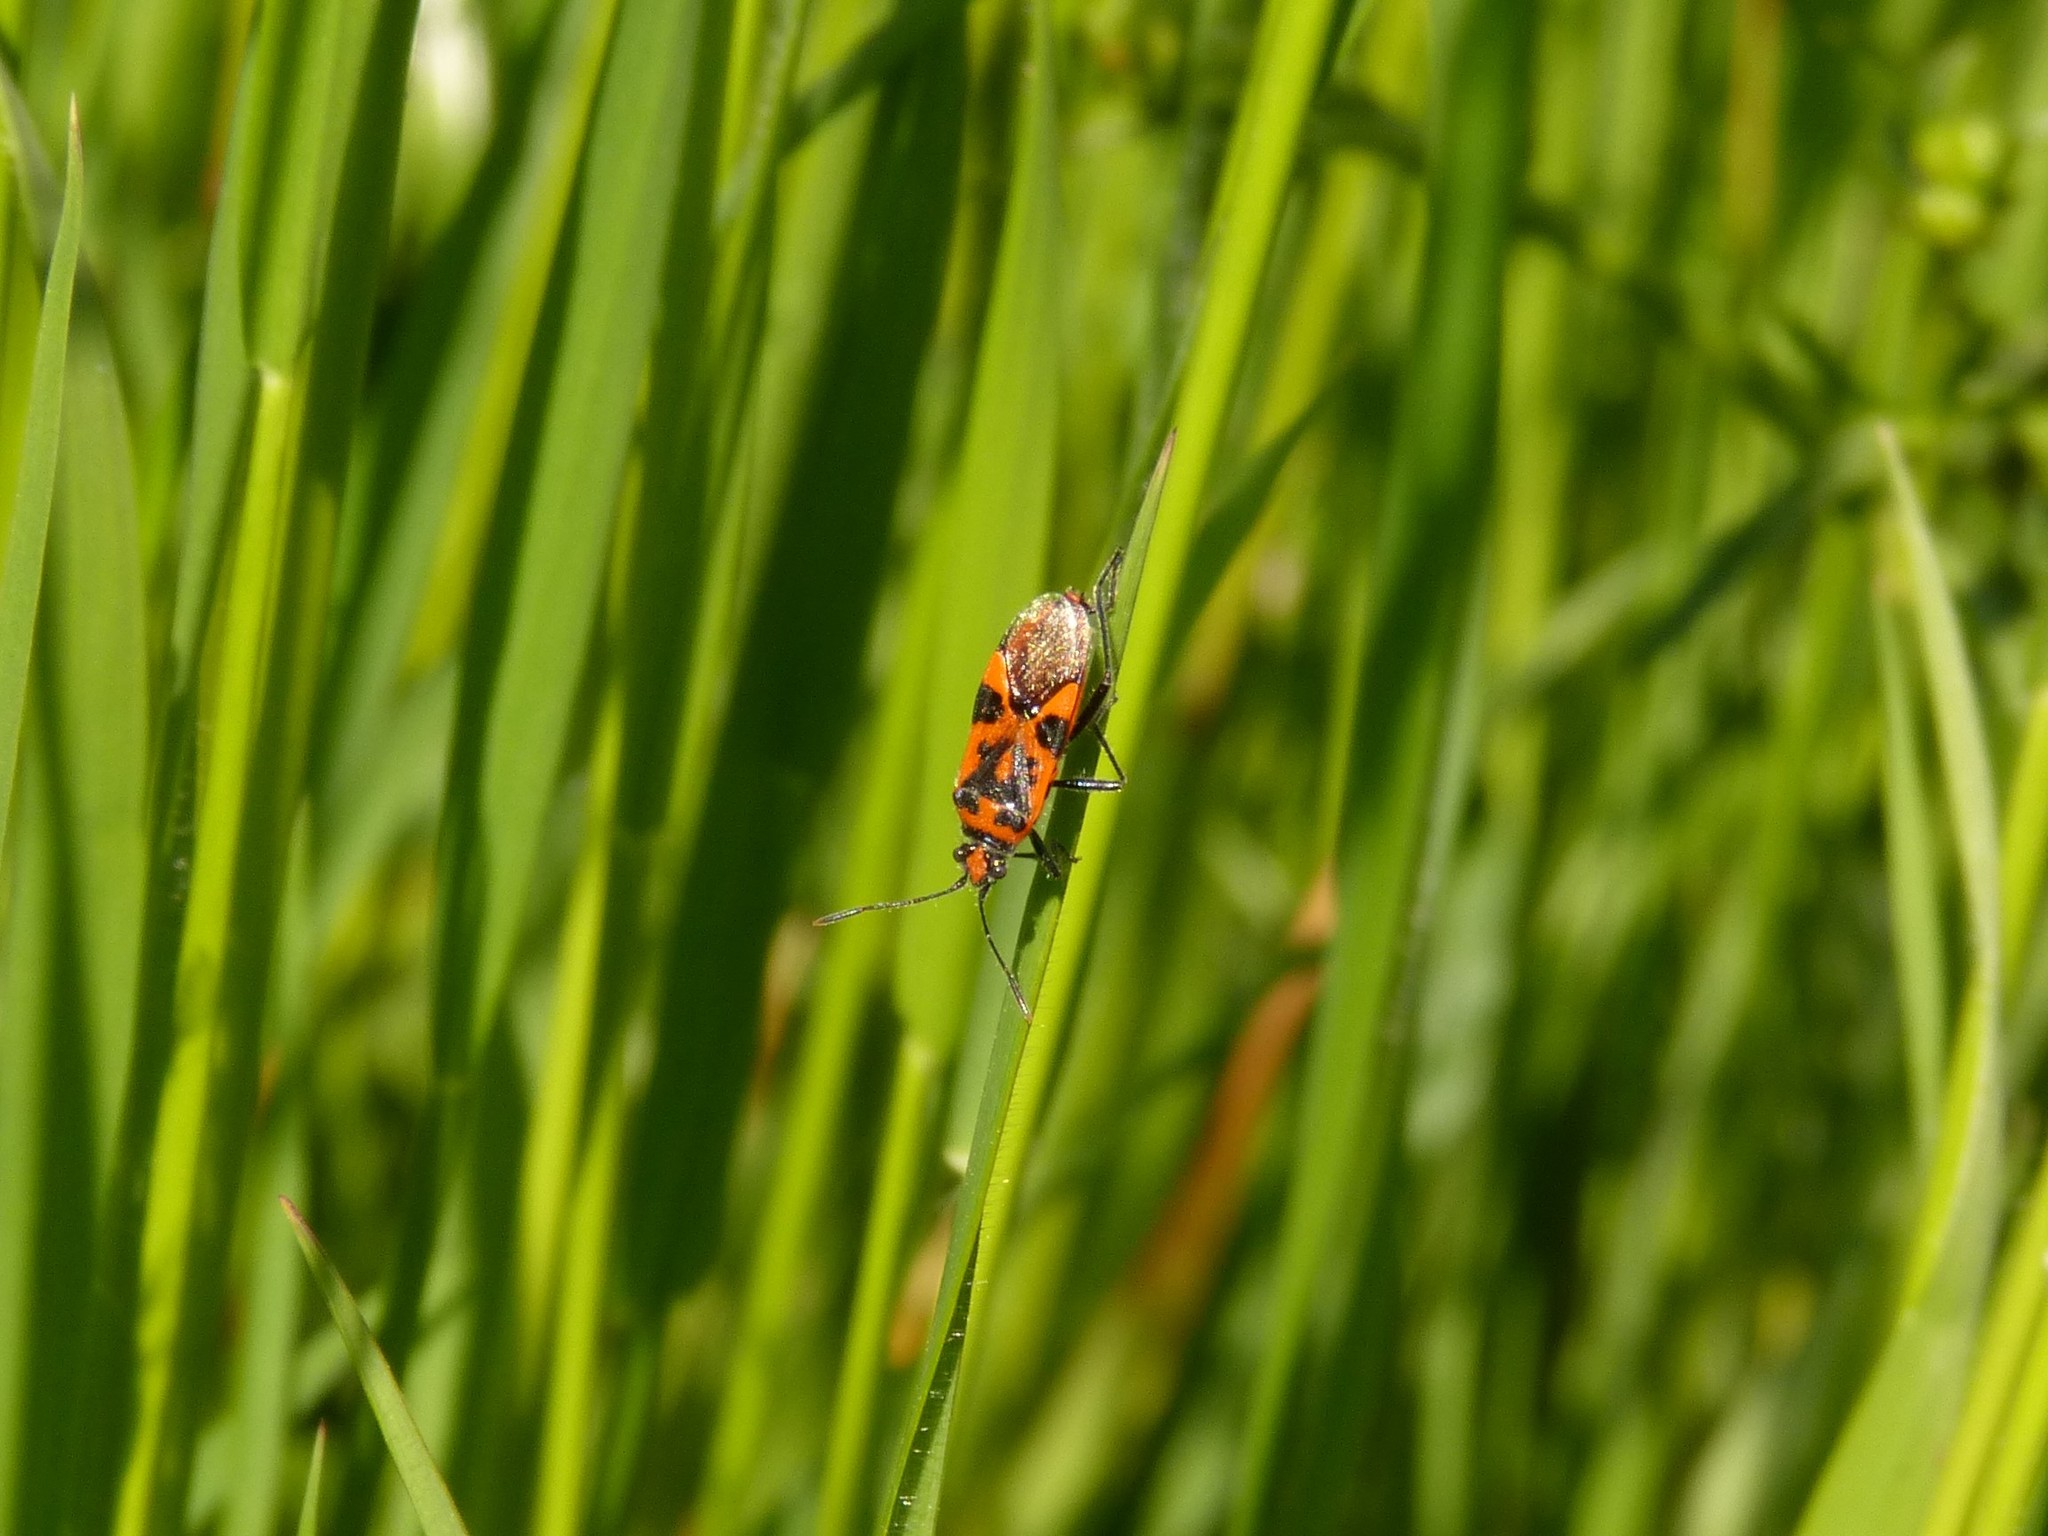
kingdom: Animalia
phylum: Arthropoda
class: Insecta
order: Hemiptera
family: Rhopalidae
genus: Corizus
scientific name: Corizus hyoscyami
